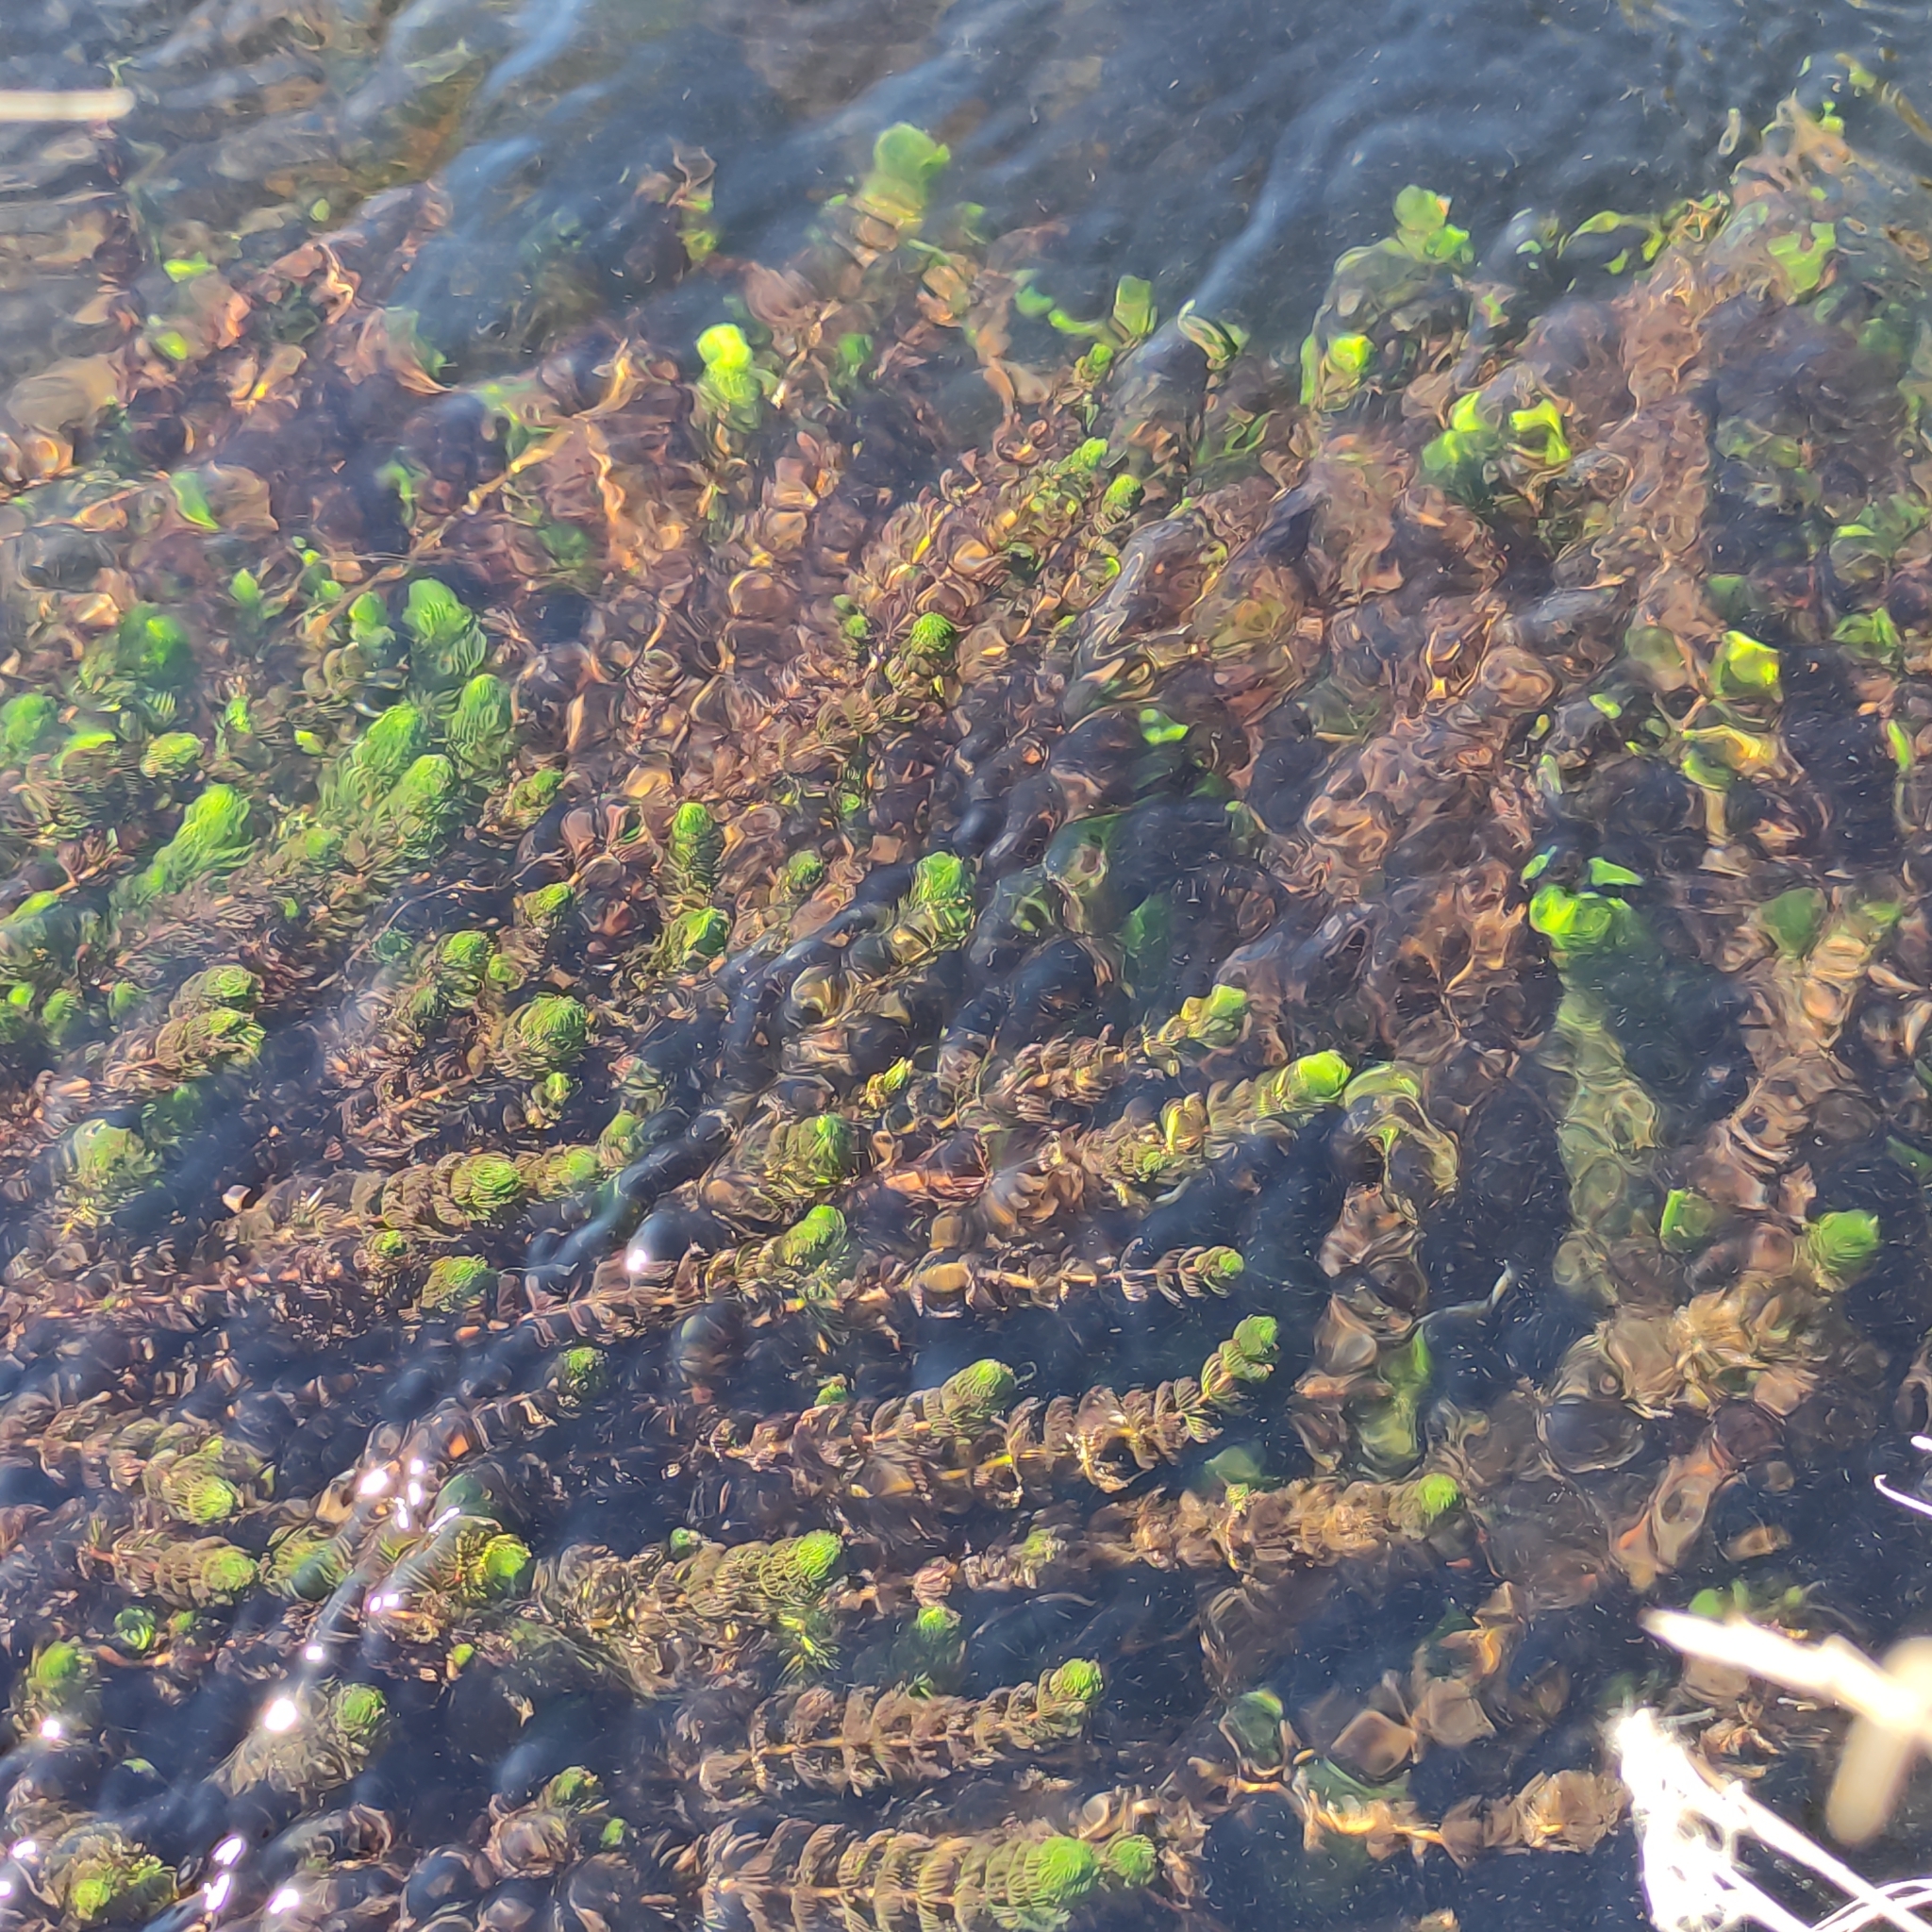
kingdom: Plantae
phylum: Tracheophyta
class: Magnoliopsida
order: Saxifragales
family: Haloragaceae
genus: Myriophyllum
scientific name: Myriophyllum triphyllum
